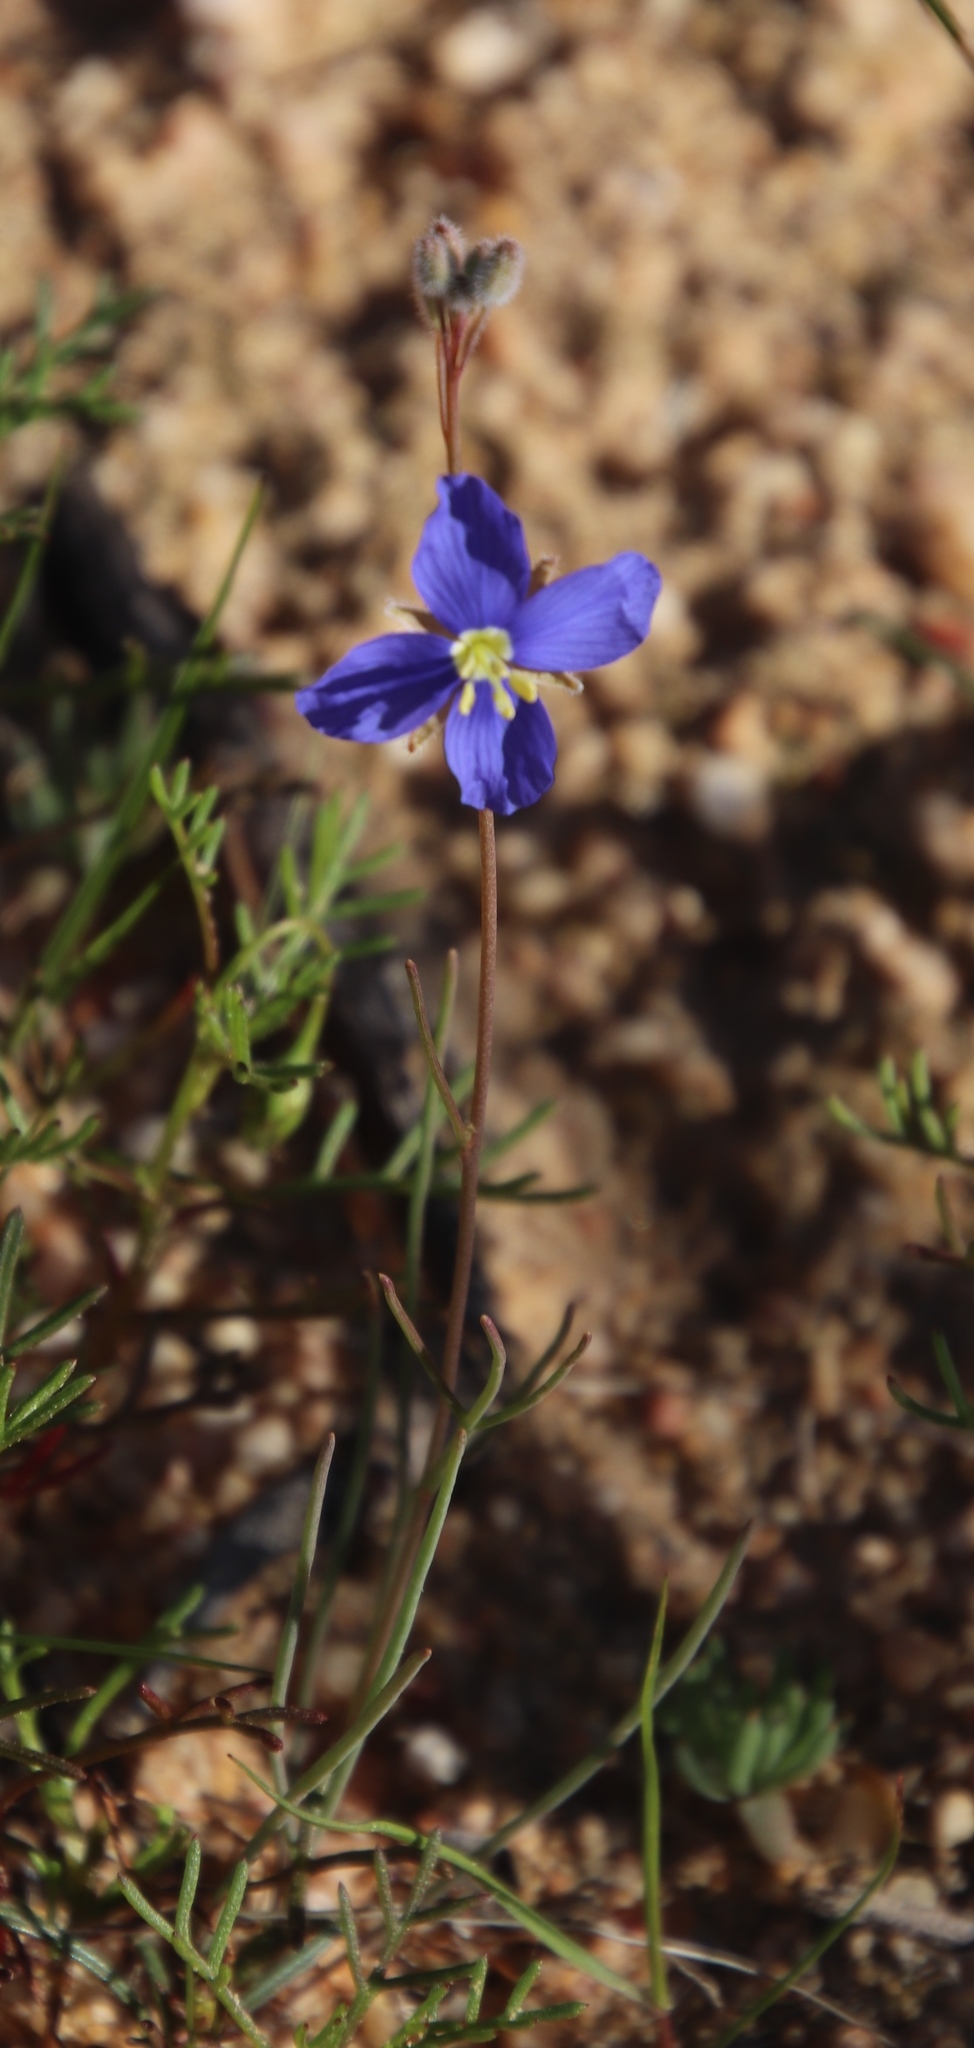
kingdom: Plantae
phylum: Tracheophyta
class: Magnoliopsida
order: Brassicales
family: Brassicaceae
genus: Heliophila
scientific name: Heliophila arenaria
